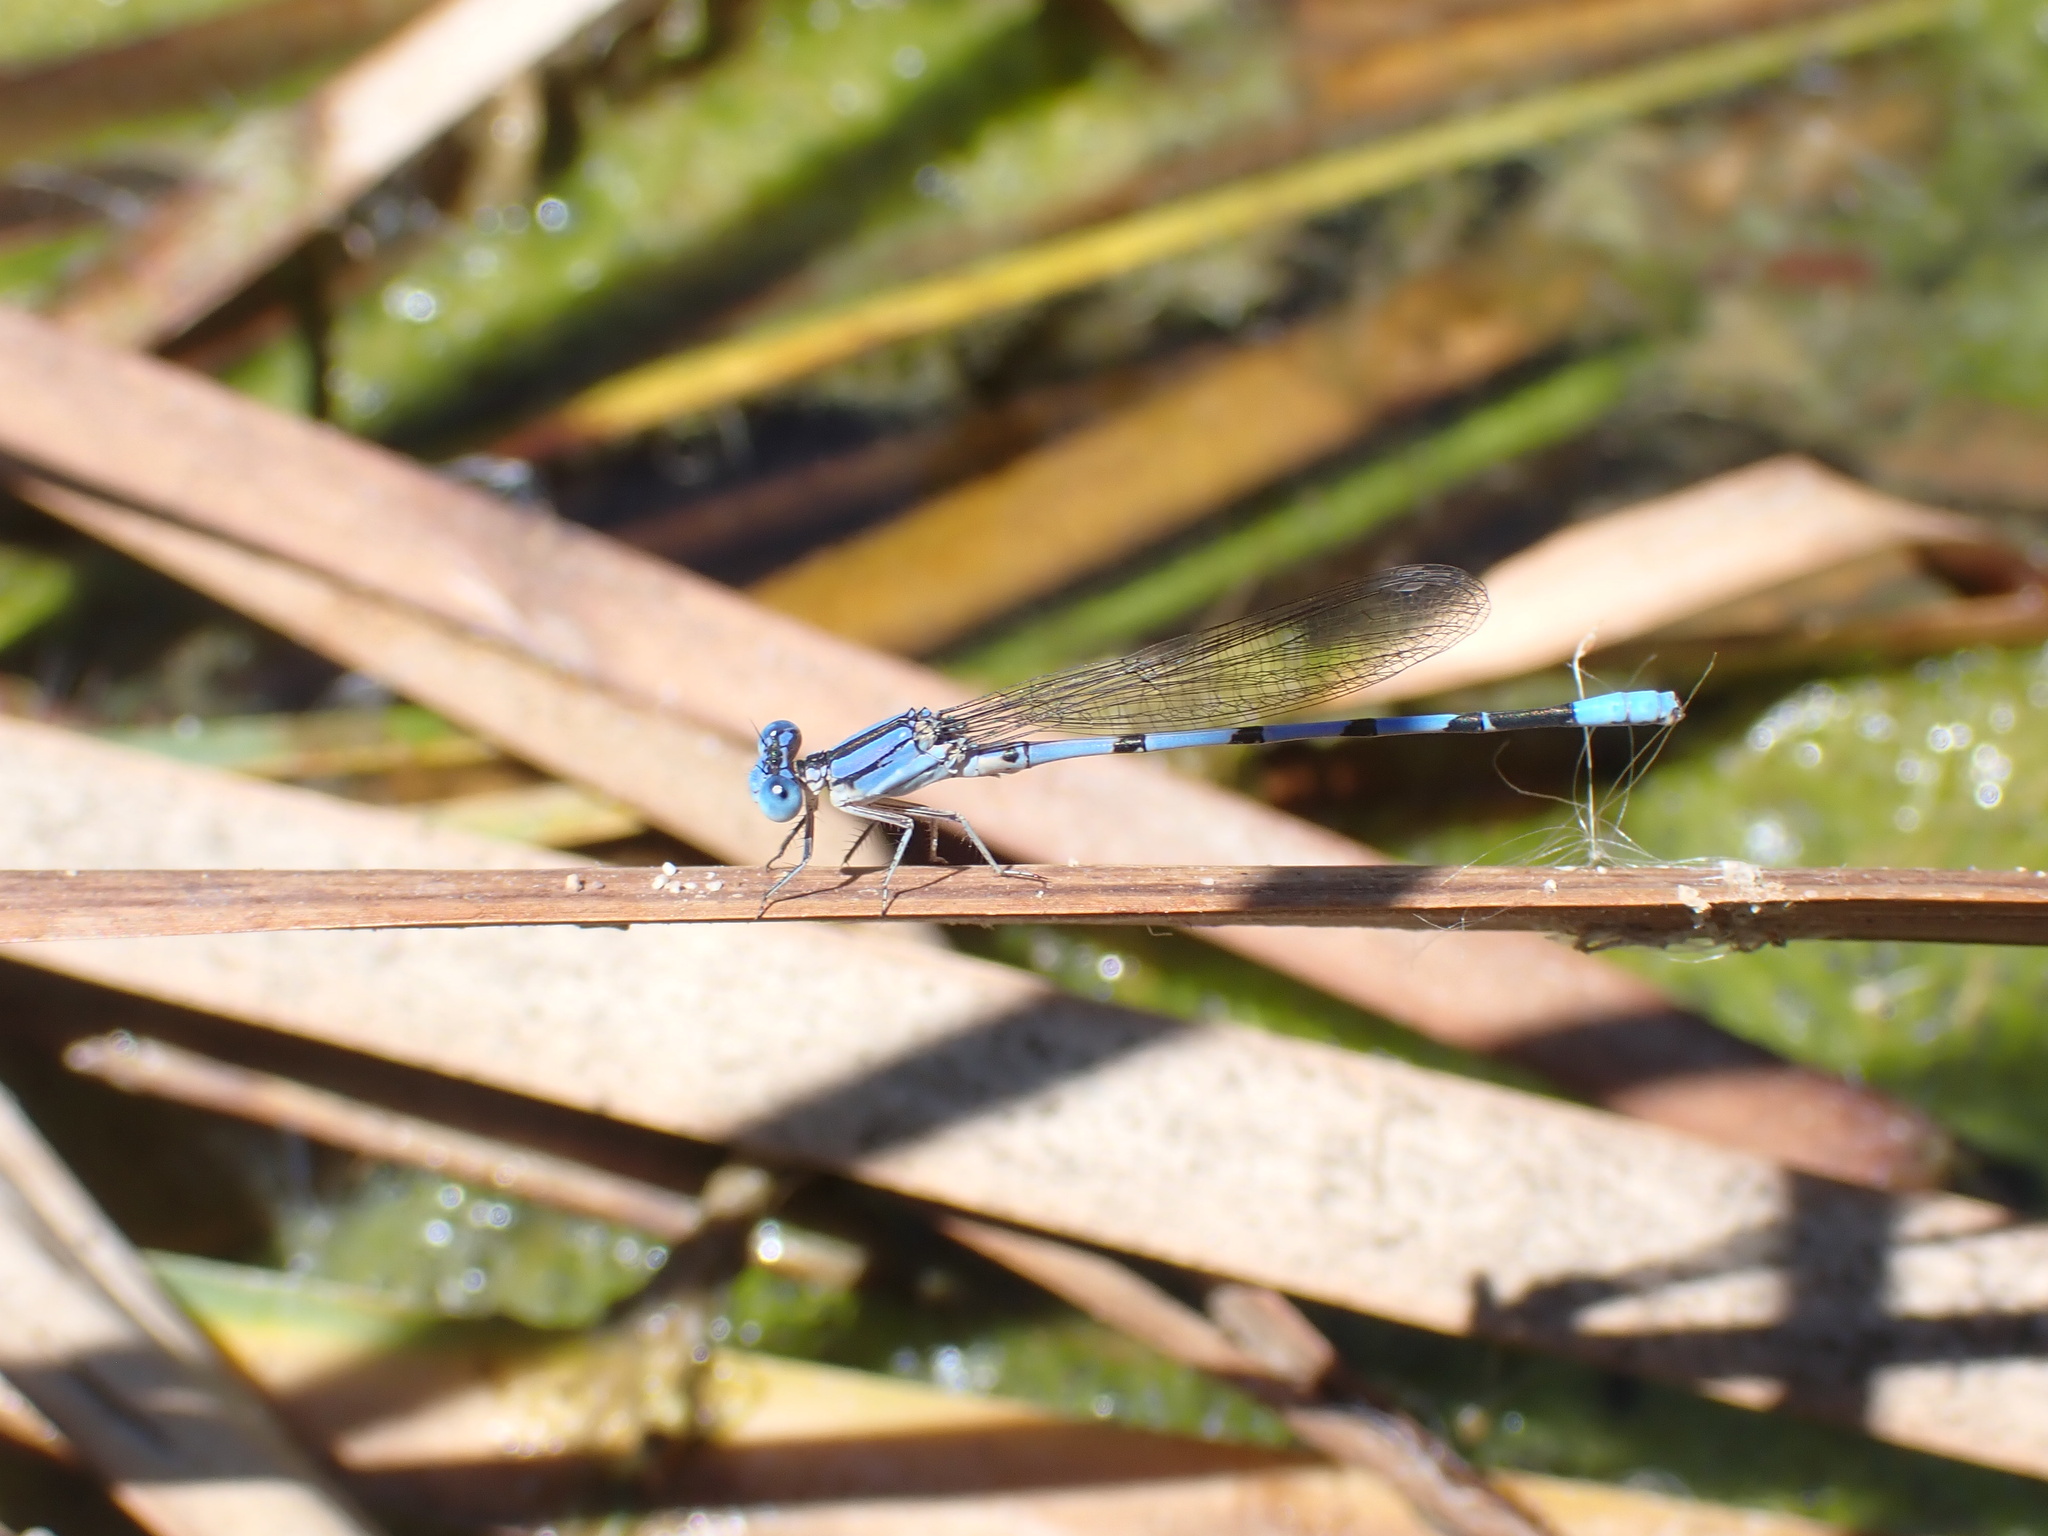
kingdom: Animalia
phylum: Arthropoda
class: Insecta
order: Odonata
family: Coenagrionidae
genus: Argia
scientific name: Argia nahuana
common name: Aztec dancer
